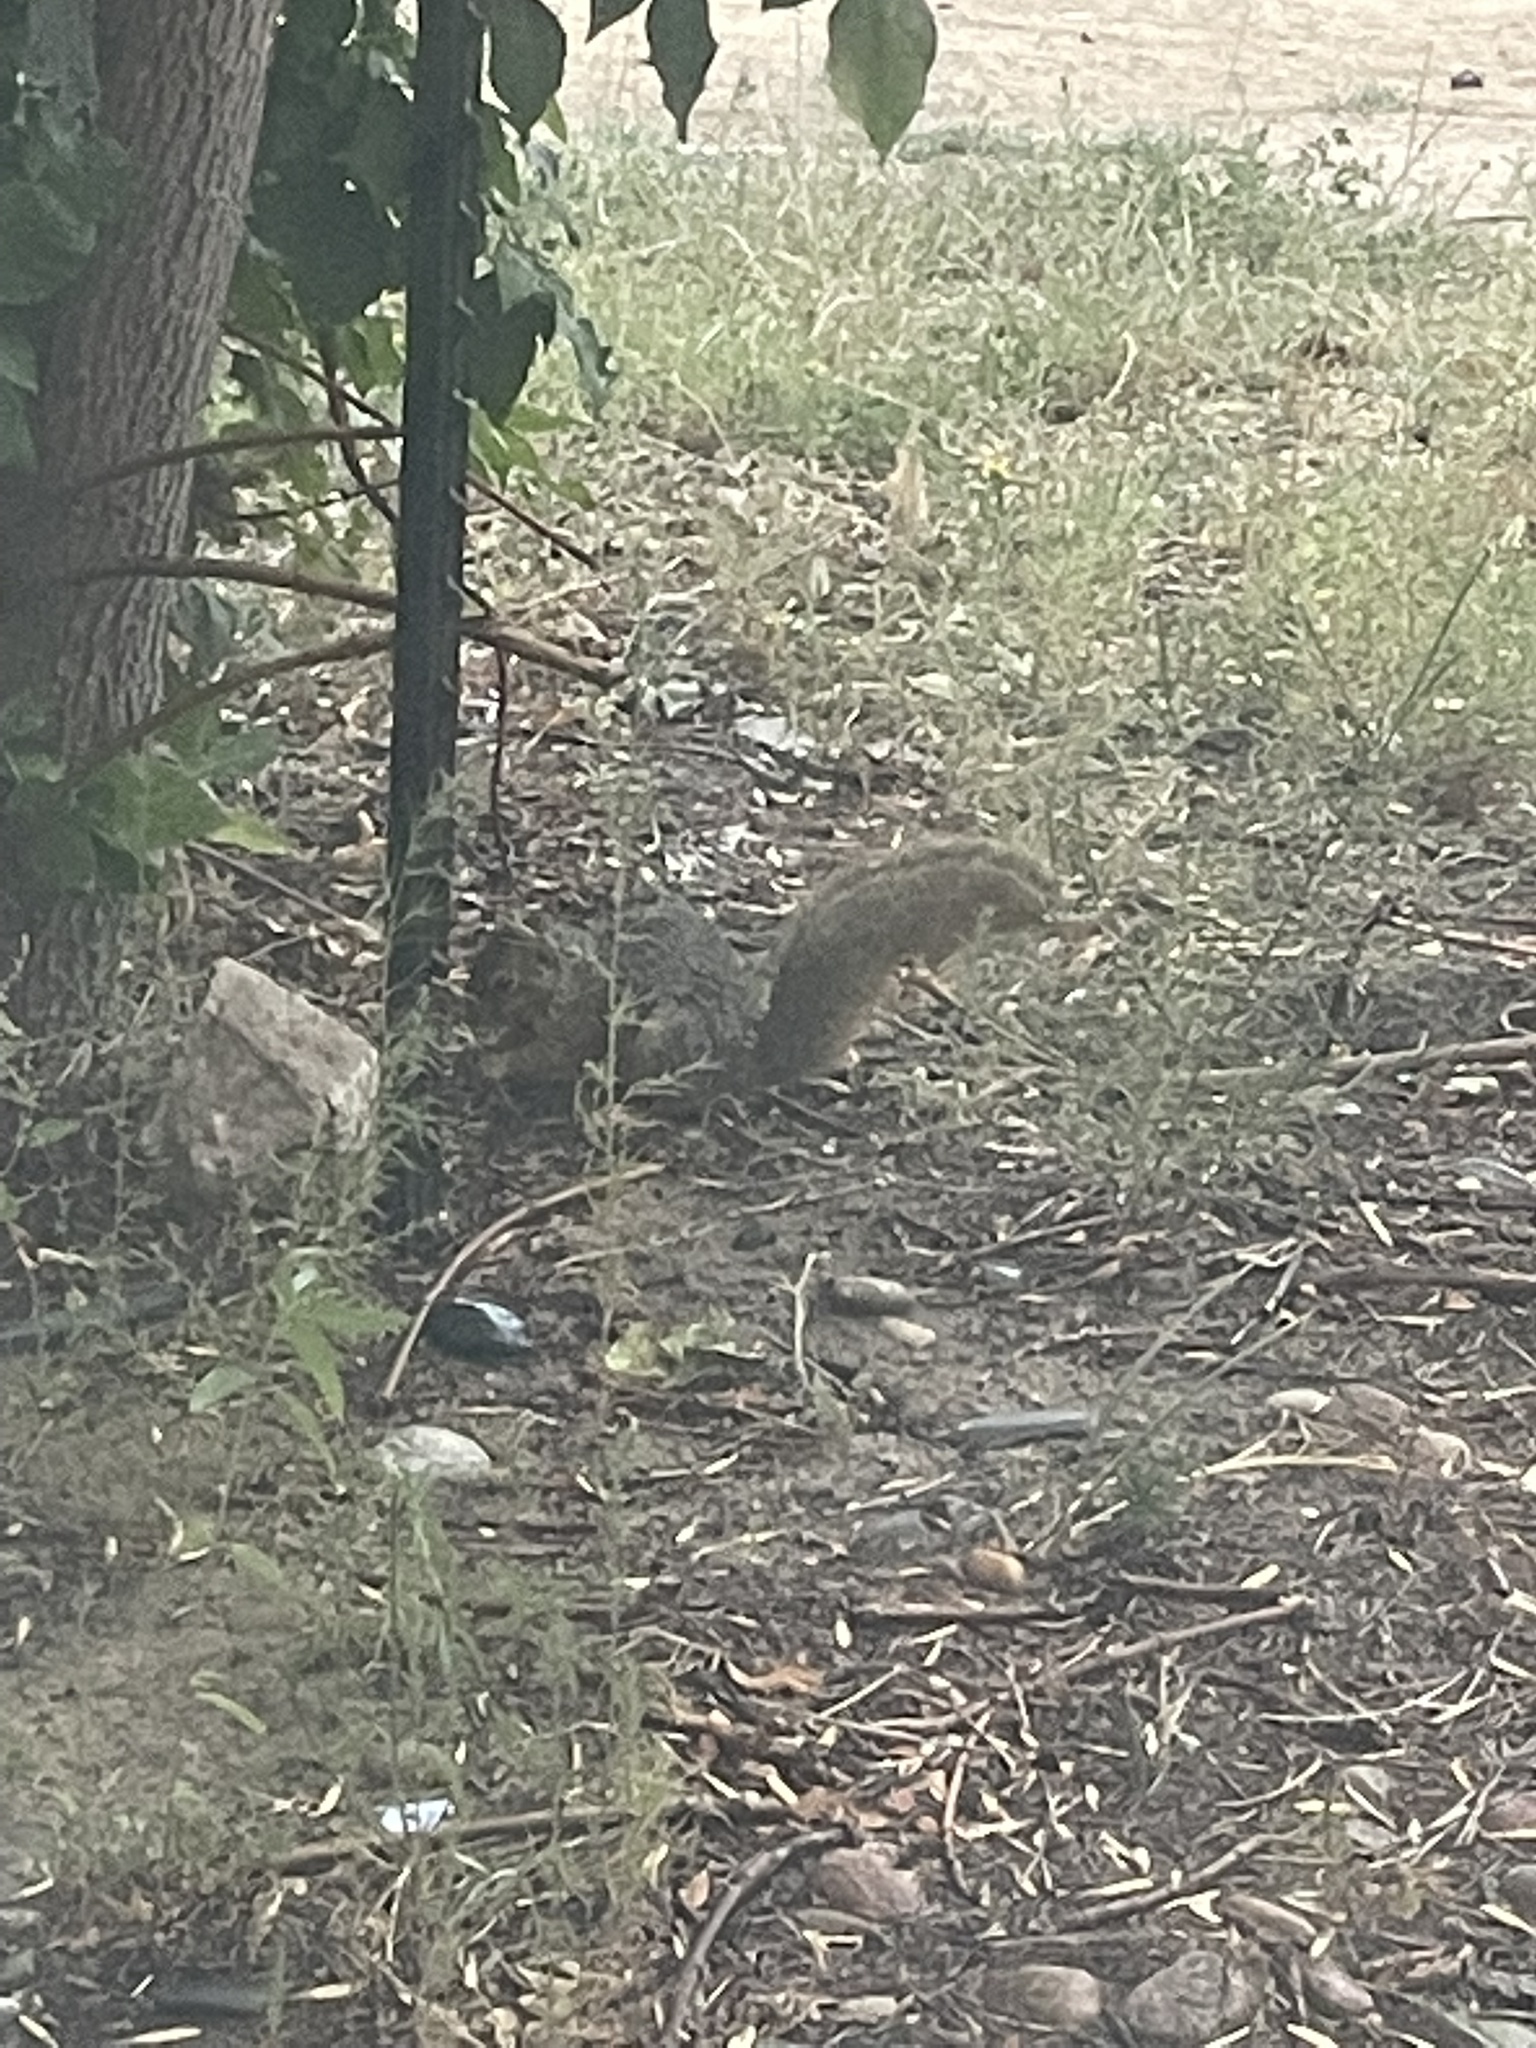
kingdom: Animalia
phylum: Chordata
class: Mammalia
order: Rodentia
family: Sciuridae
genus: Sciurus
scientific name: Sciurus niger
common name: Fox squirrel
